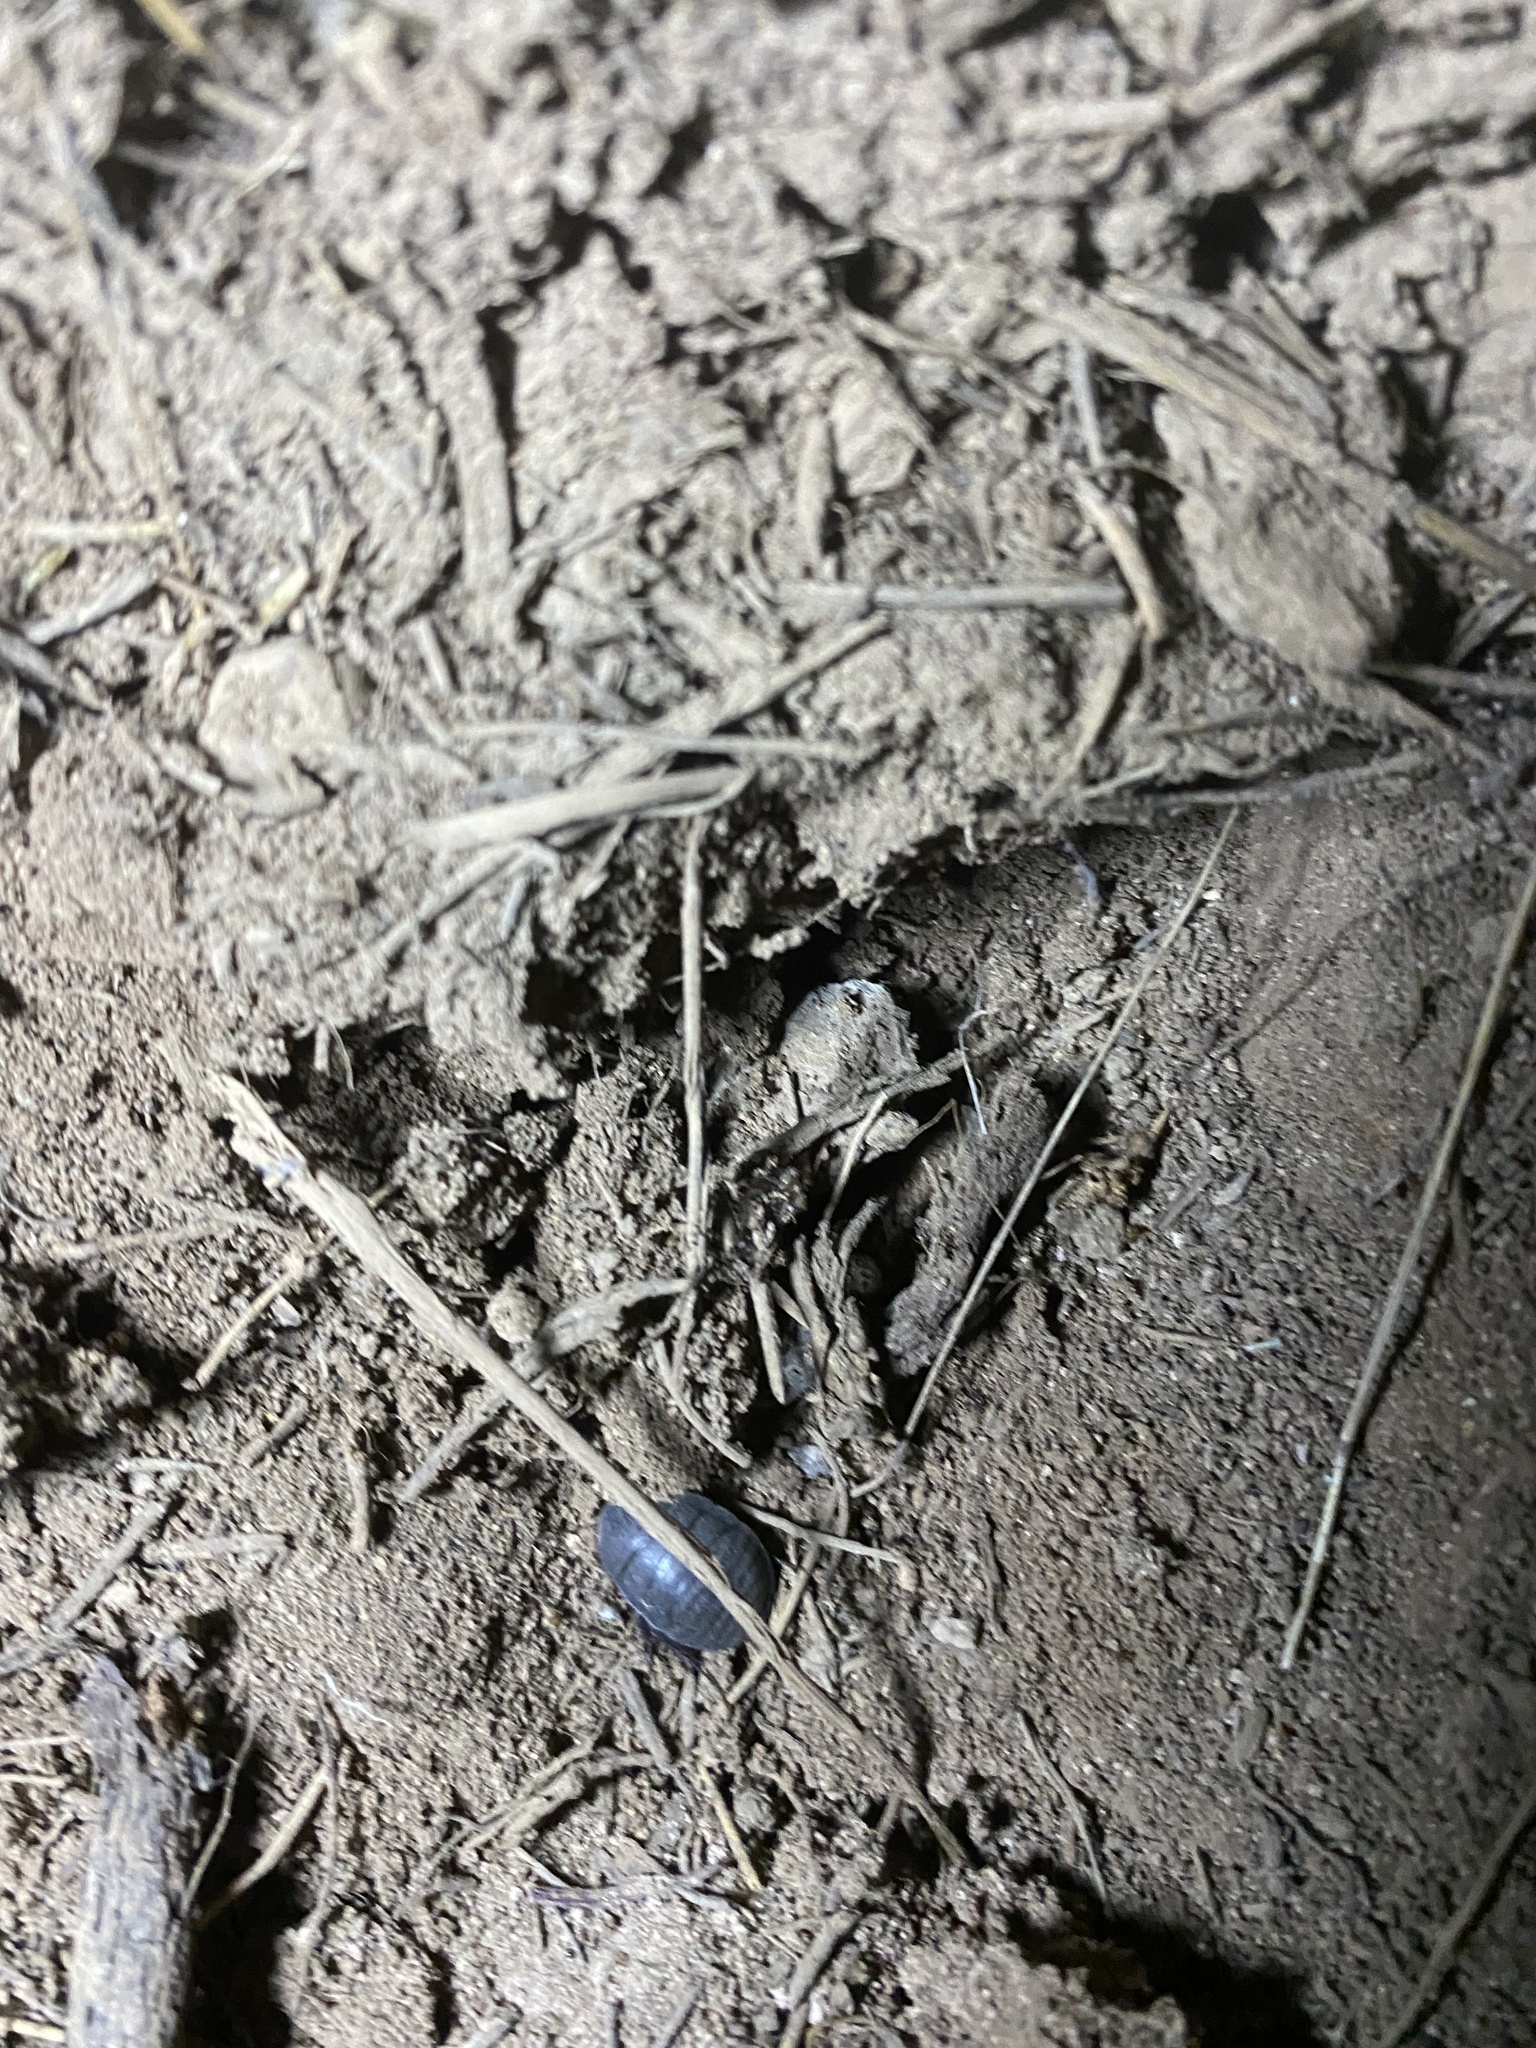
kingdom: Animalia
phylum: Arthropoda
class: Insecta
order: Blattodea
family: Corydiidae
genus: Polyphaga
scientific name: Polyphaga aegyptiaca
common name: Egyptian cockroach
